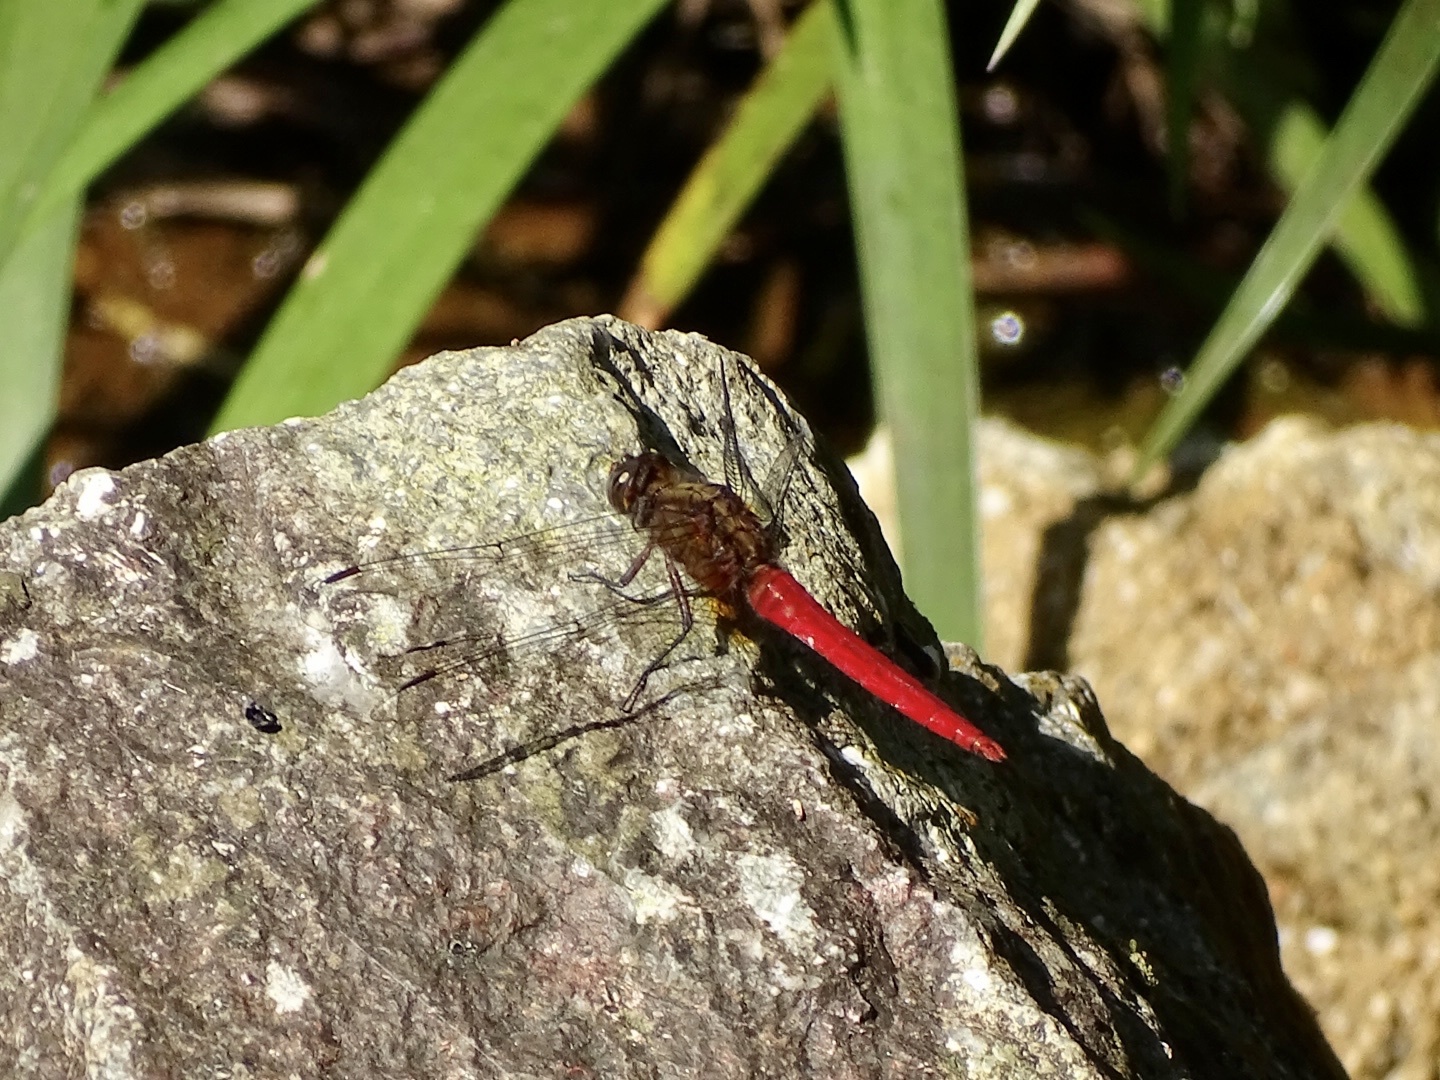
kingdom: Animalia
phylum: Arthropoda
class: Insecta
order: Odonata
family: Libellulidae
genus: Orthetrum
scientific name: Orthetrum chrysis
